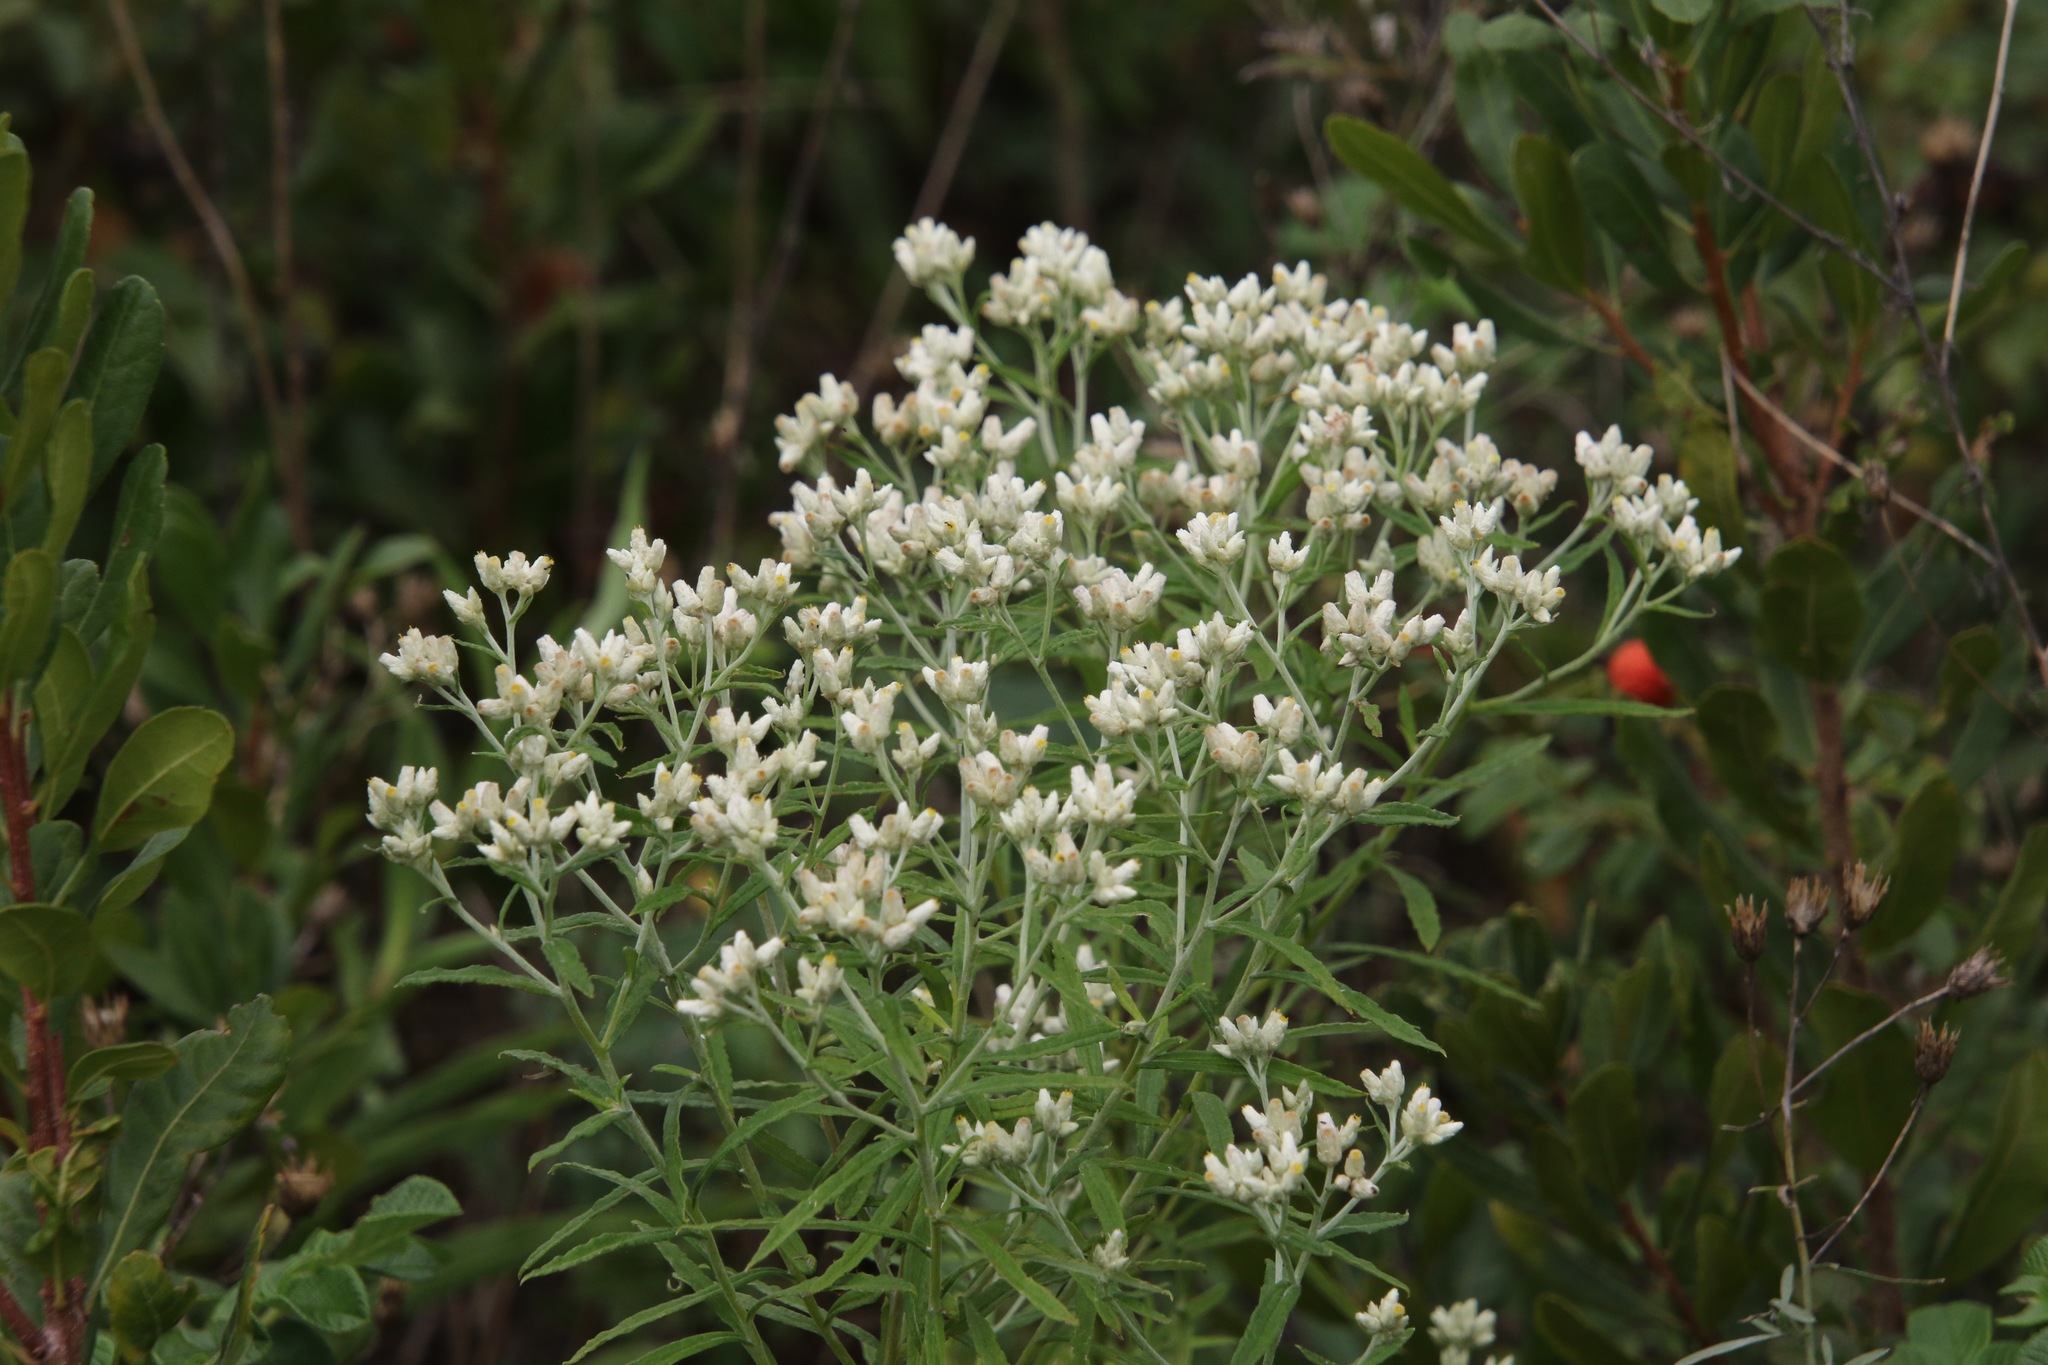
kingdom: Plantae
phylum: Tracheophyta
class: Magnoliopsida
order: Asterales
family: Asteraceae
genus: Pseudognaphalium
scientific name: Pseudognaphalium obtusifolium
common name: Eastern rabbit-tobacco
